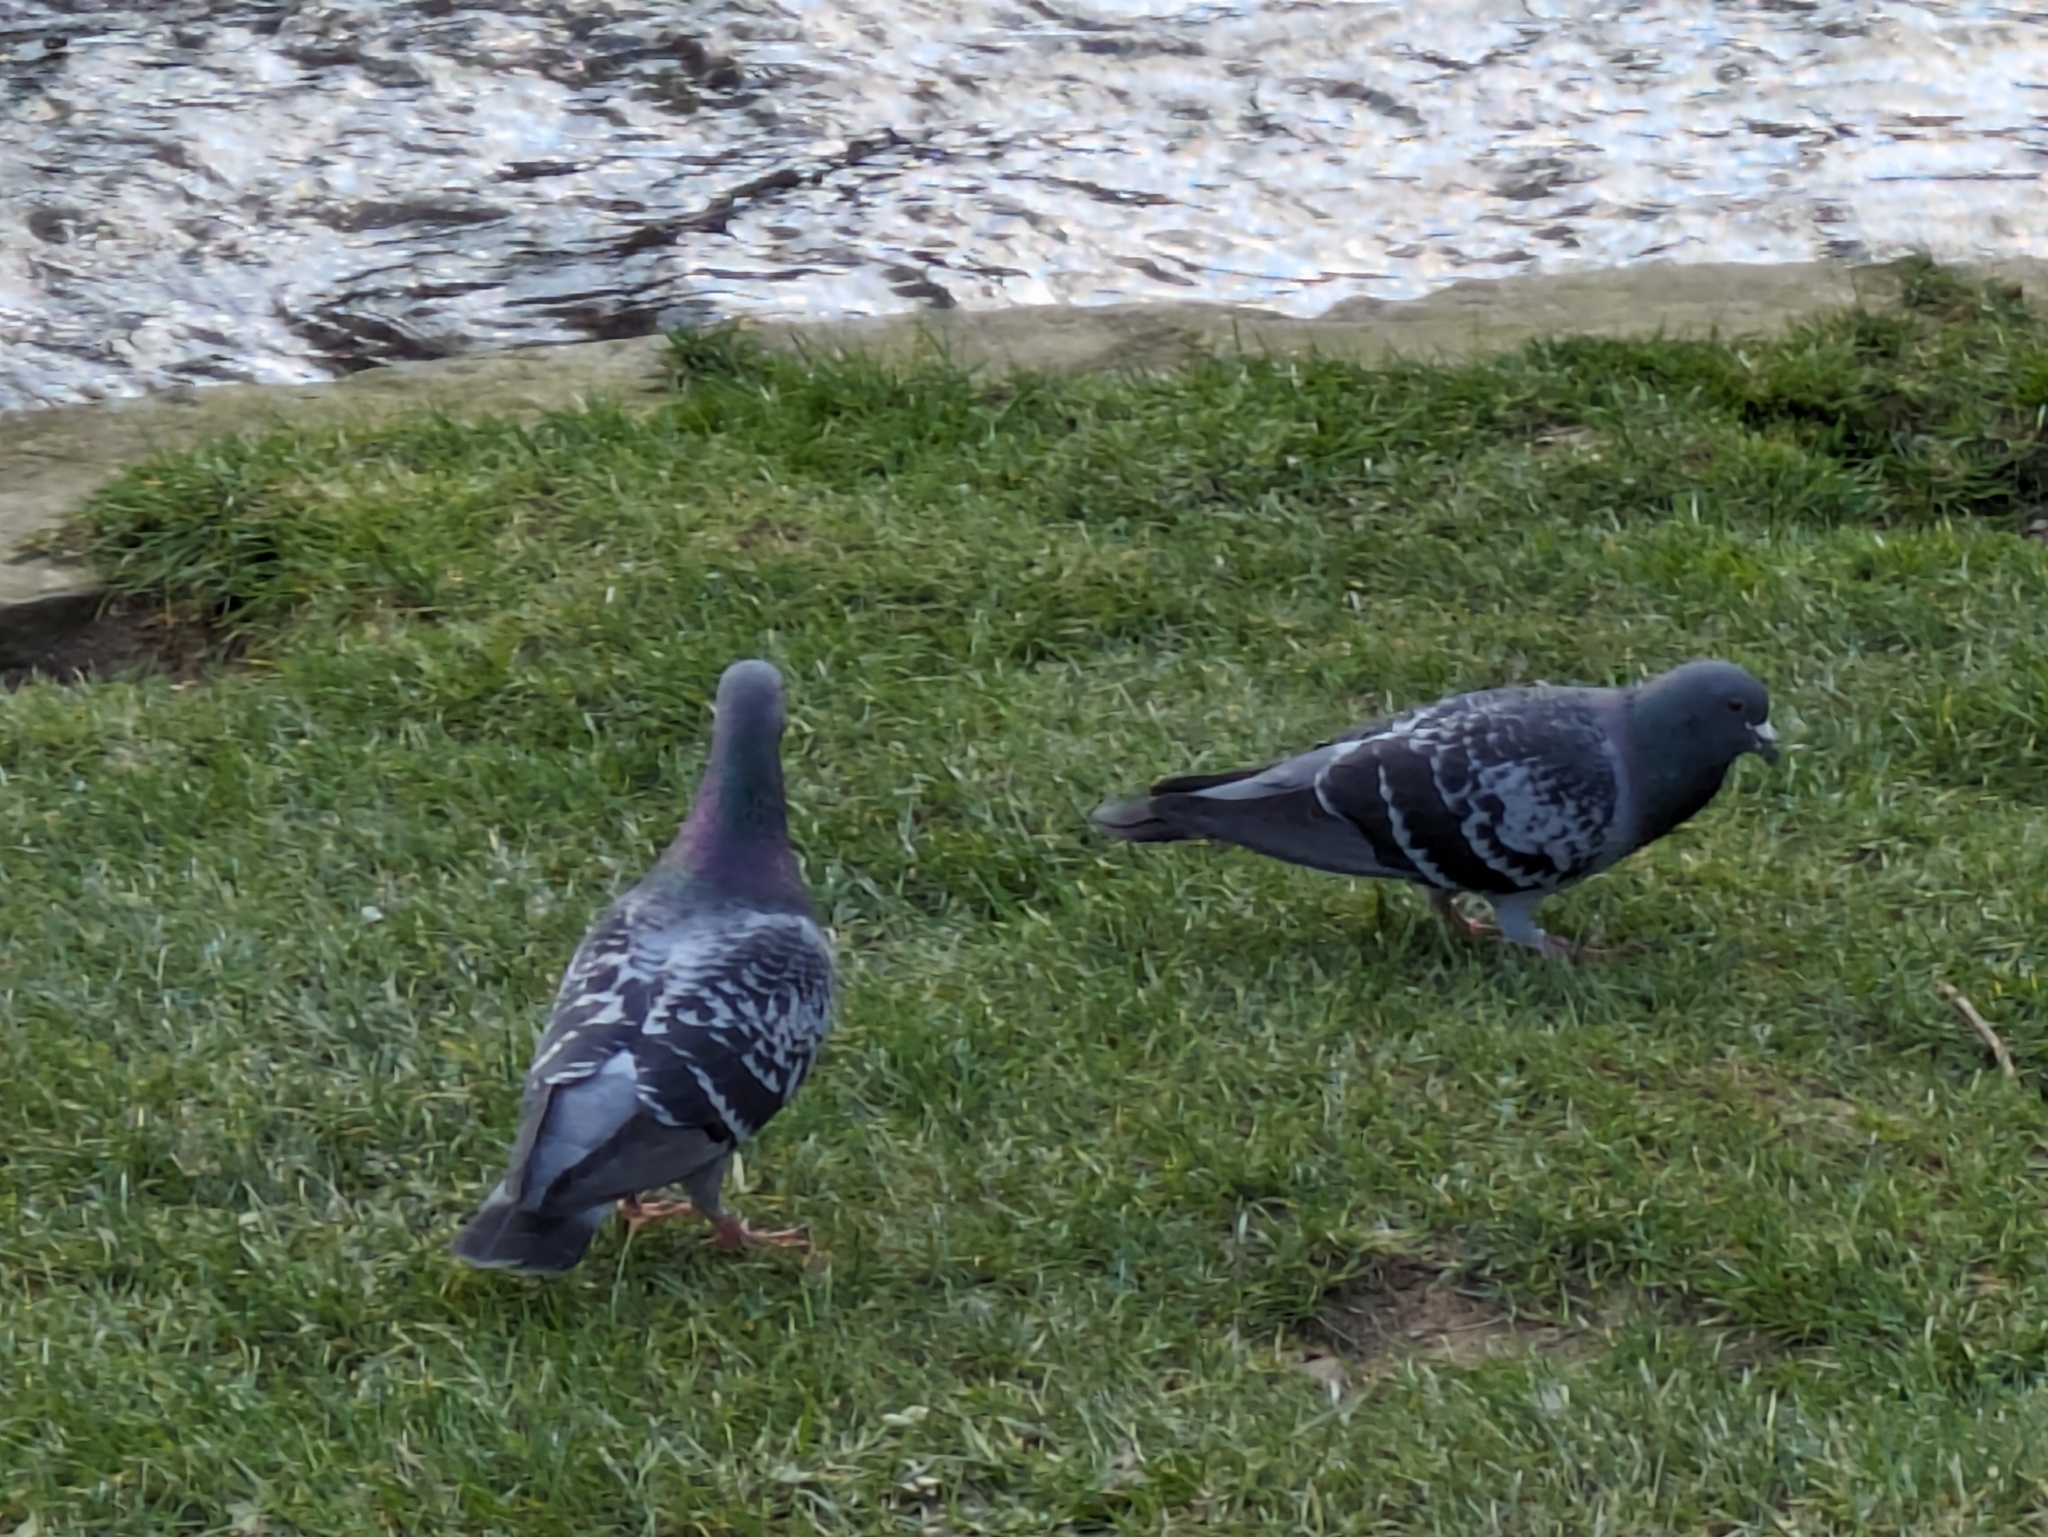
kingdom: Animalia
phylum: Chordata
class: Aves
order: Columbiformes
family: Columbidae
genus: Columba
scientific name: Columba livia
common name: Rock pigeon
